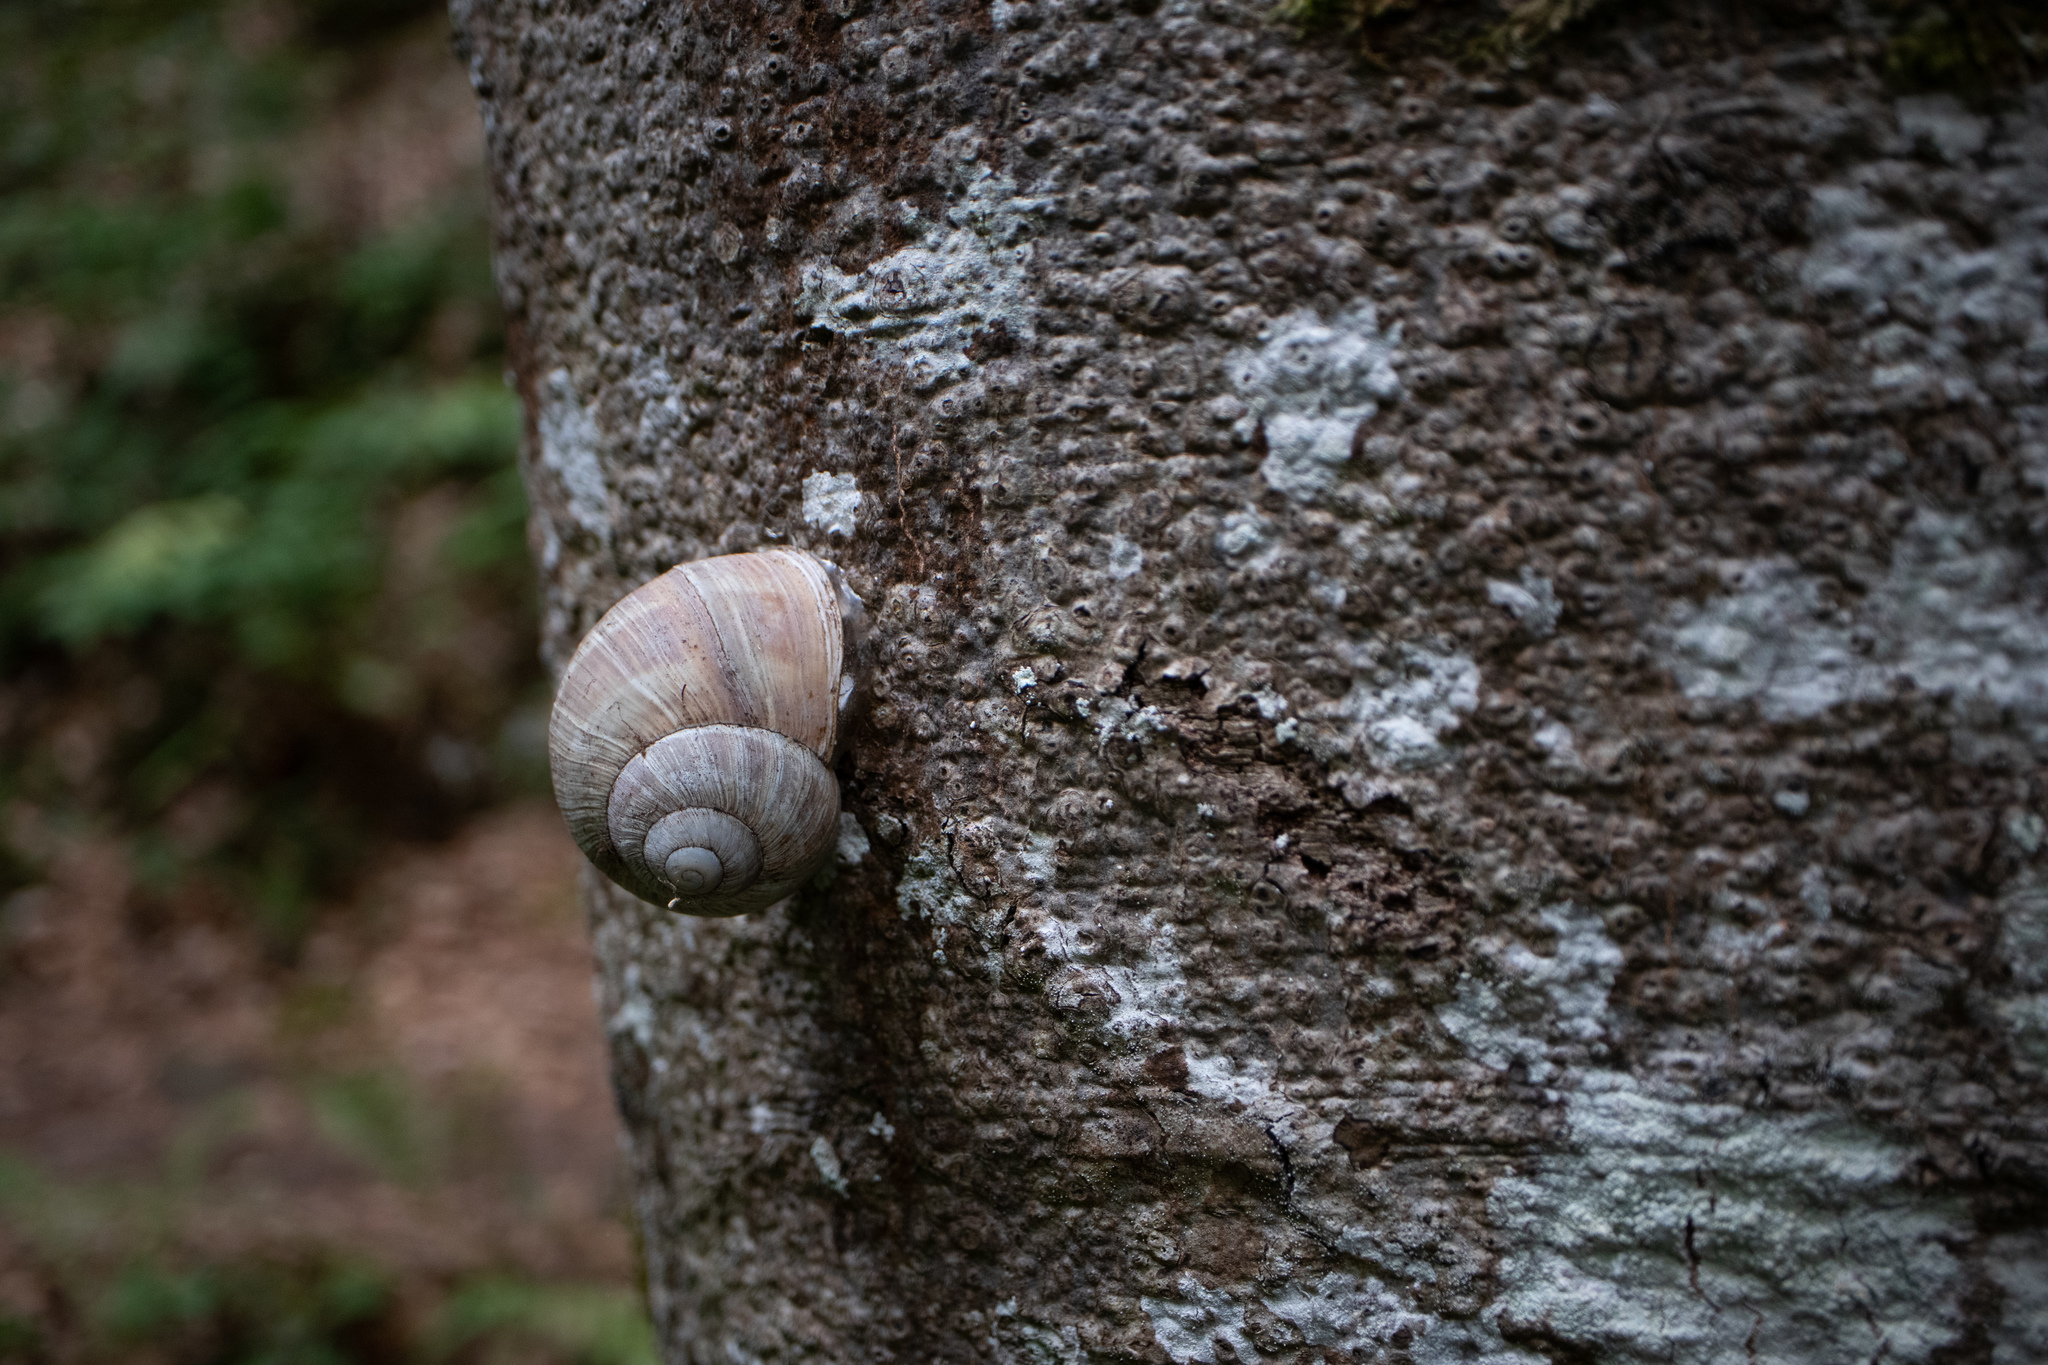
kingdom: Animalia
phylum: Mollusca
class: Gastropoda
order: Stylommatophora
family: Helicidae
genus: Helix
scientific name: Helix pomatia
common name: Roman snail
